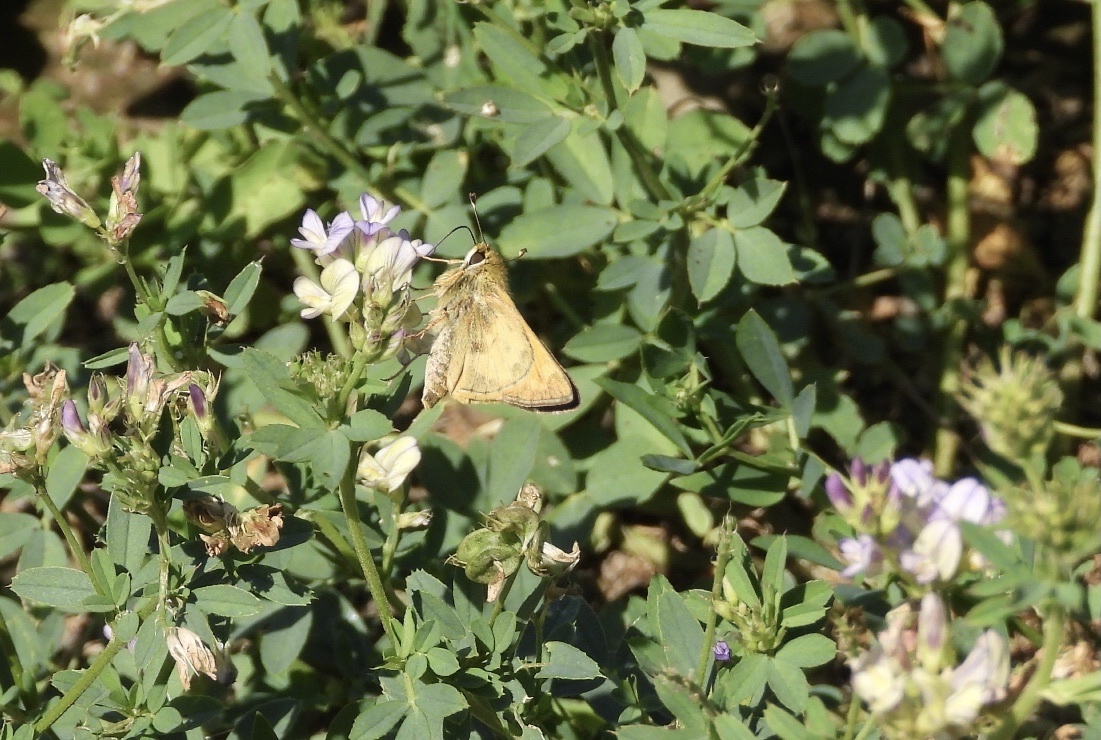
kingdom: Animalia
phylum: Arthropoda
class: Insecta
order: Lepidoptera
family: Hesperiidae
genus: Atalopedes
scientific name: Atalopedes
